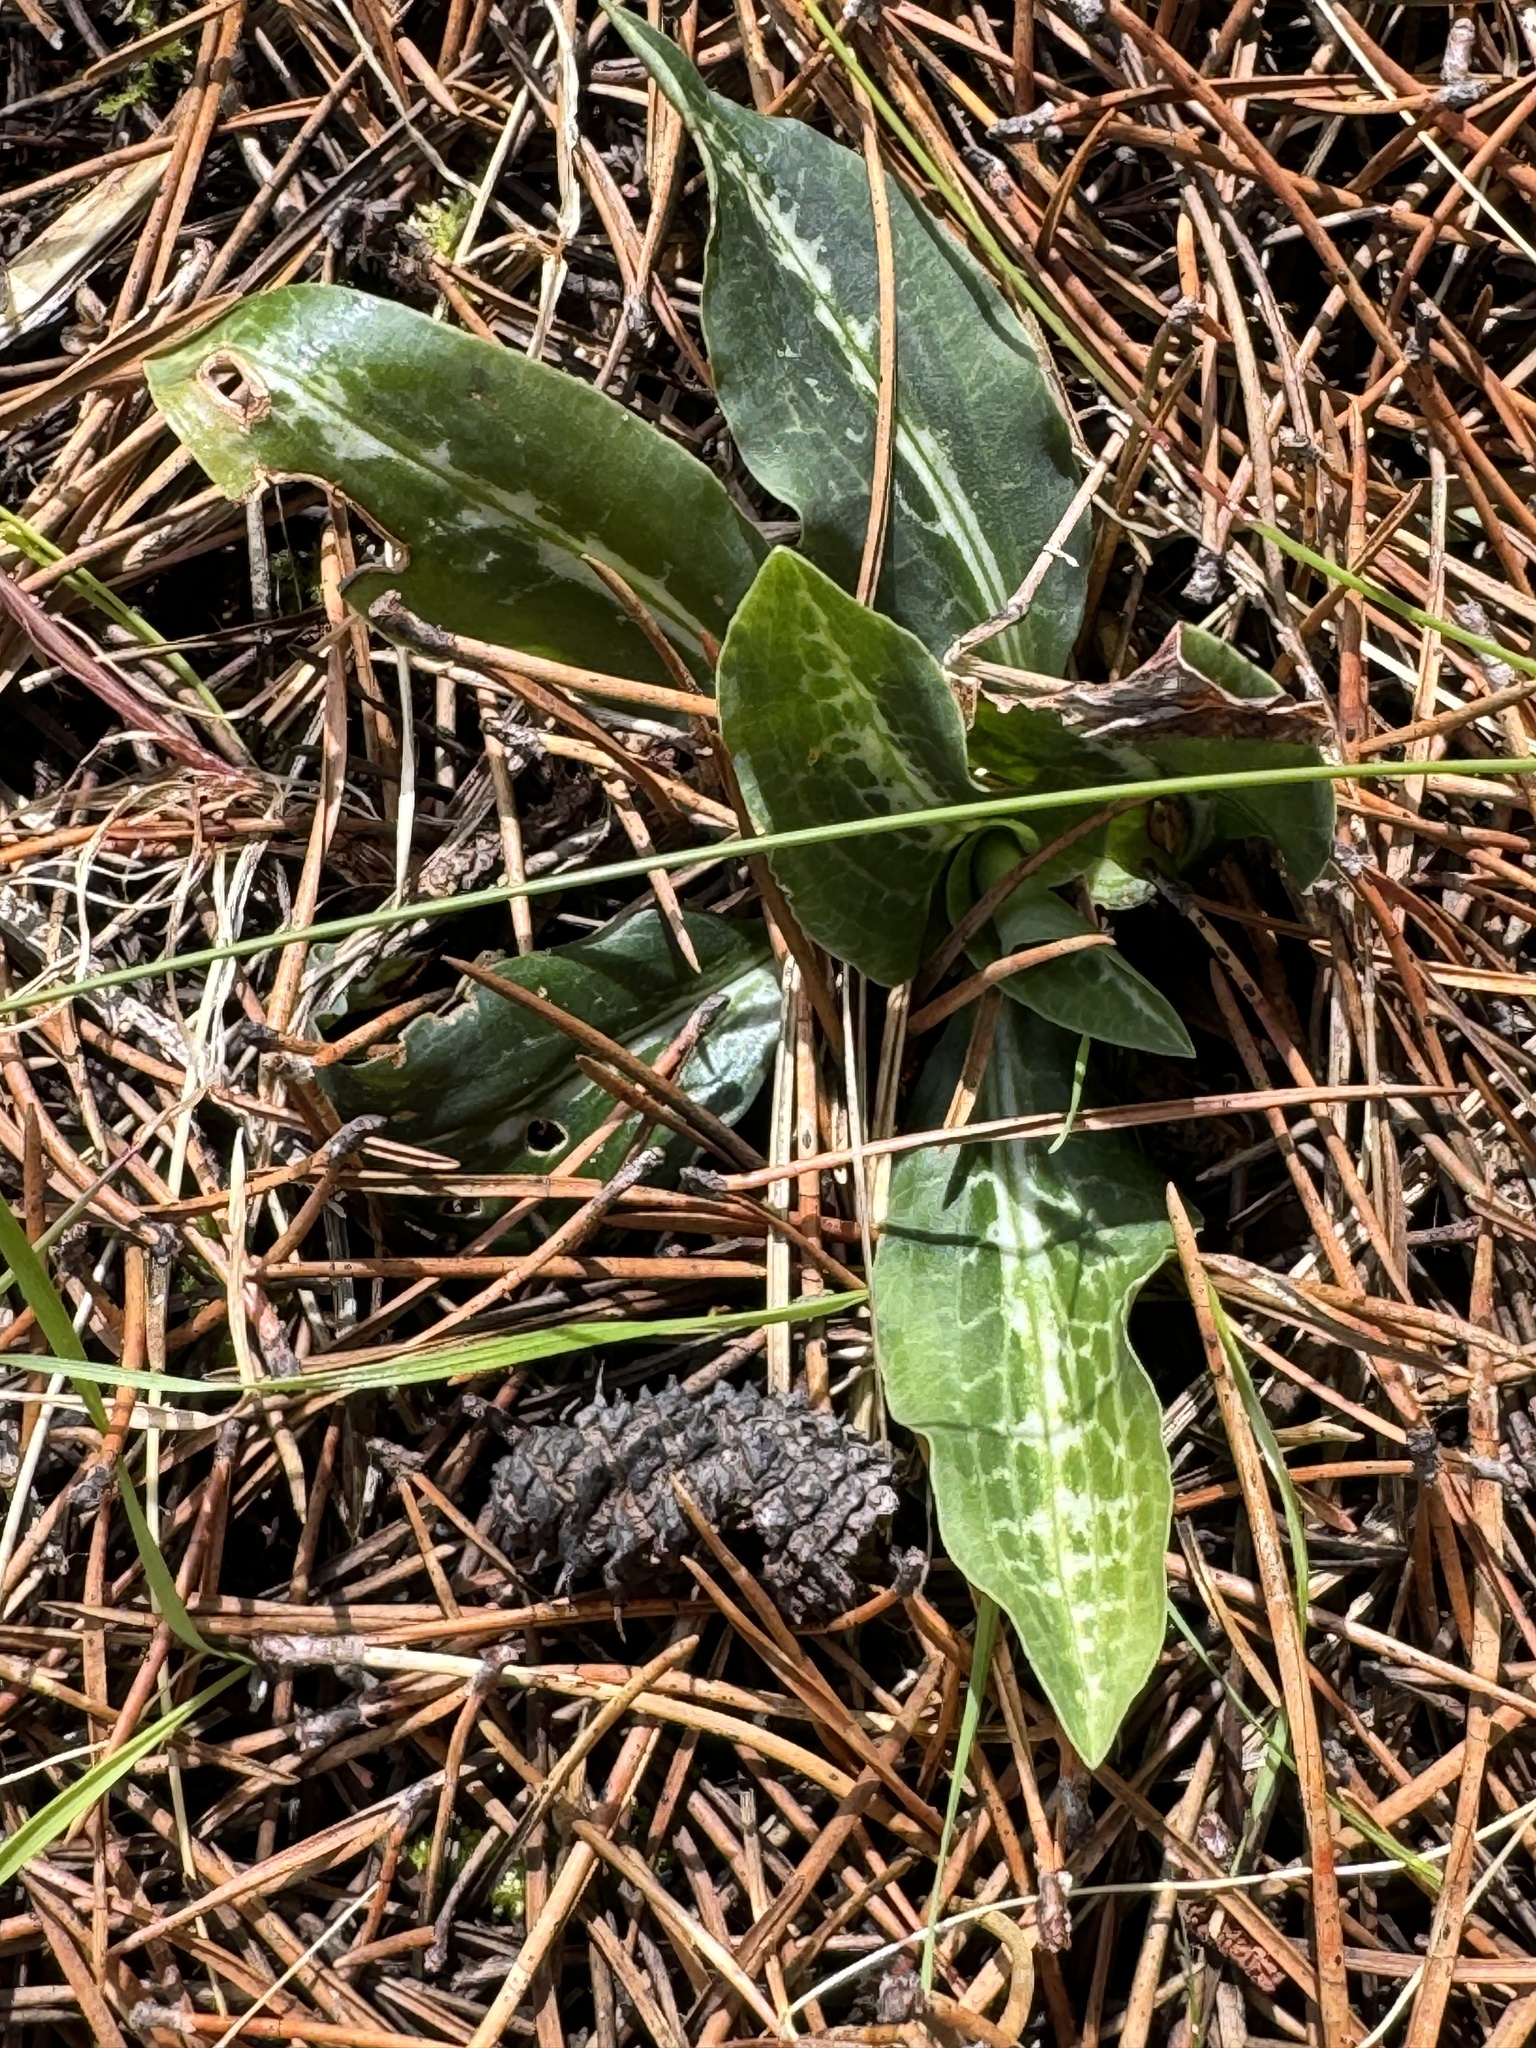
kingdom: Plantae
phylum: Tracheophyta
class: Liliopsida
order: Asparagales
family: Orchidaceae
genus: Goodyera
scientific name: Goodyera oblongifolia
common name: Giant rattlesnake-plantain
